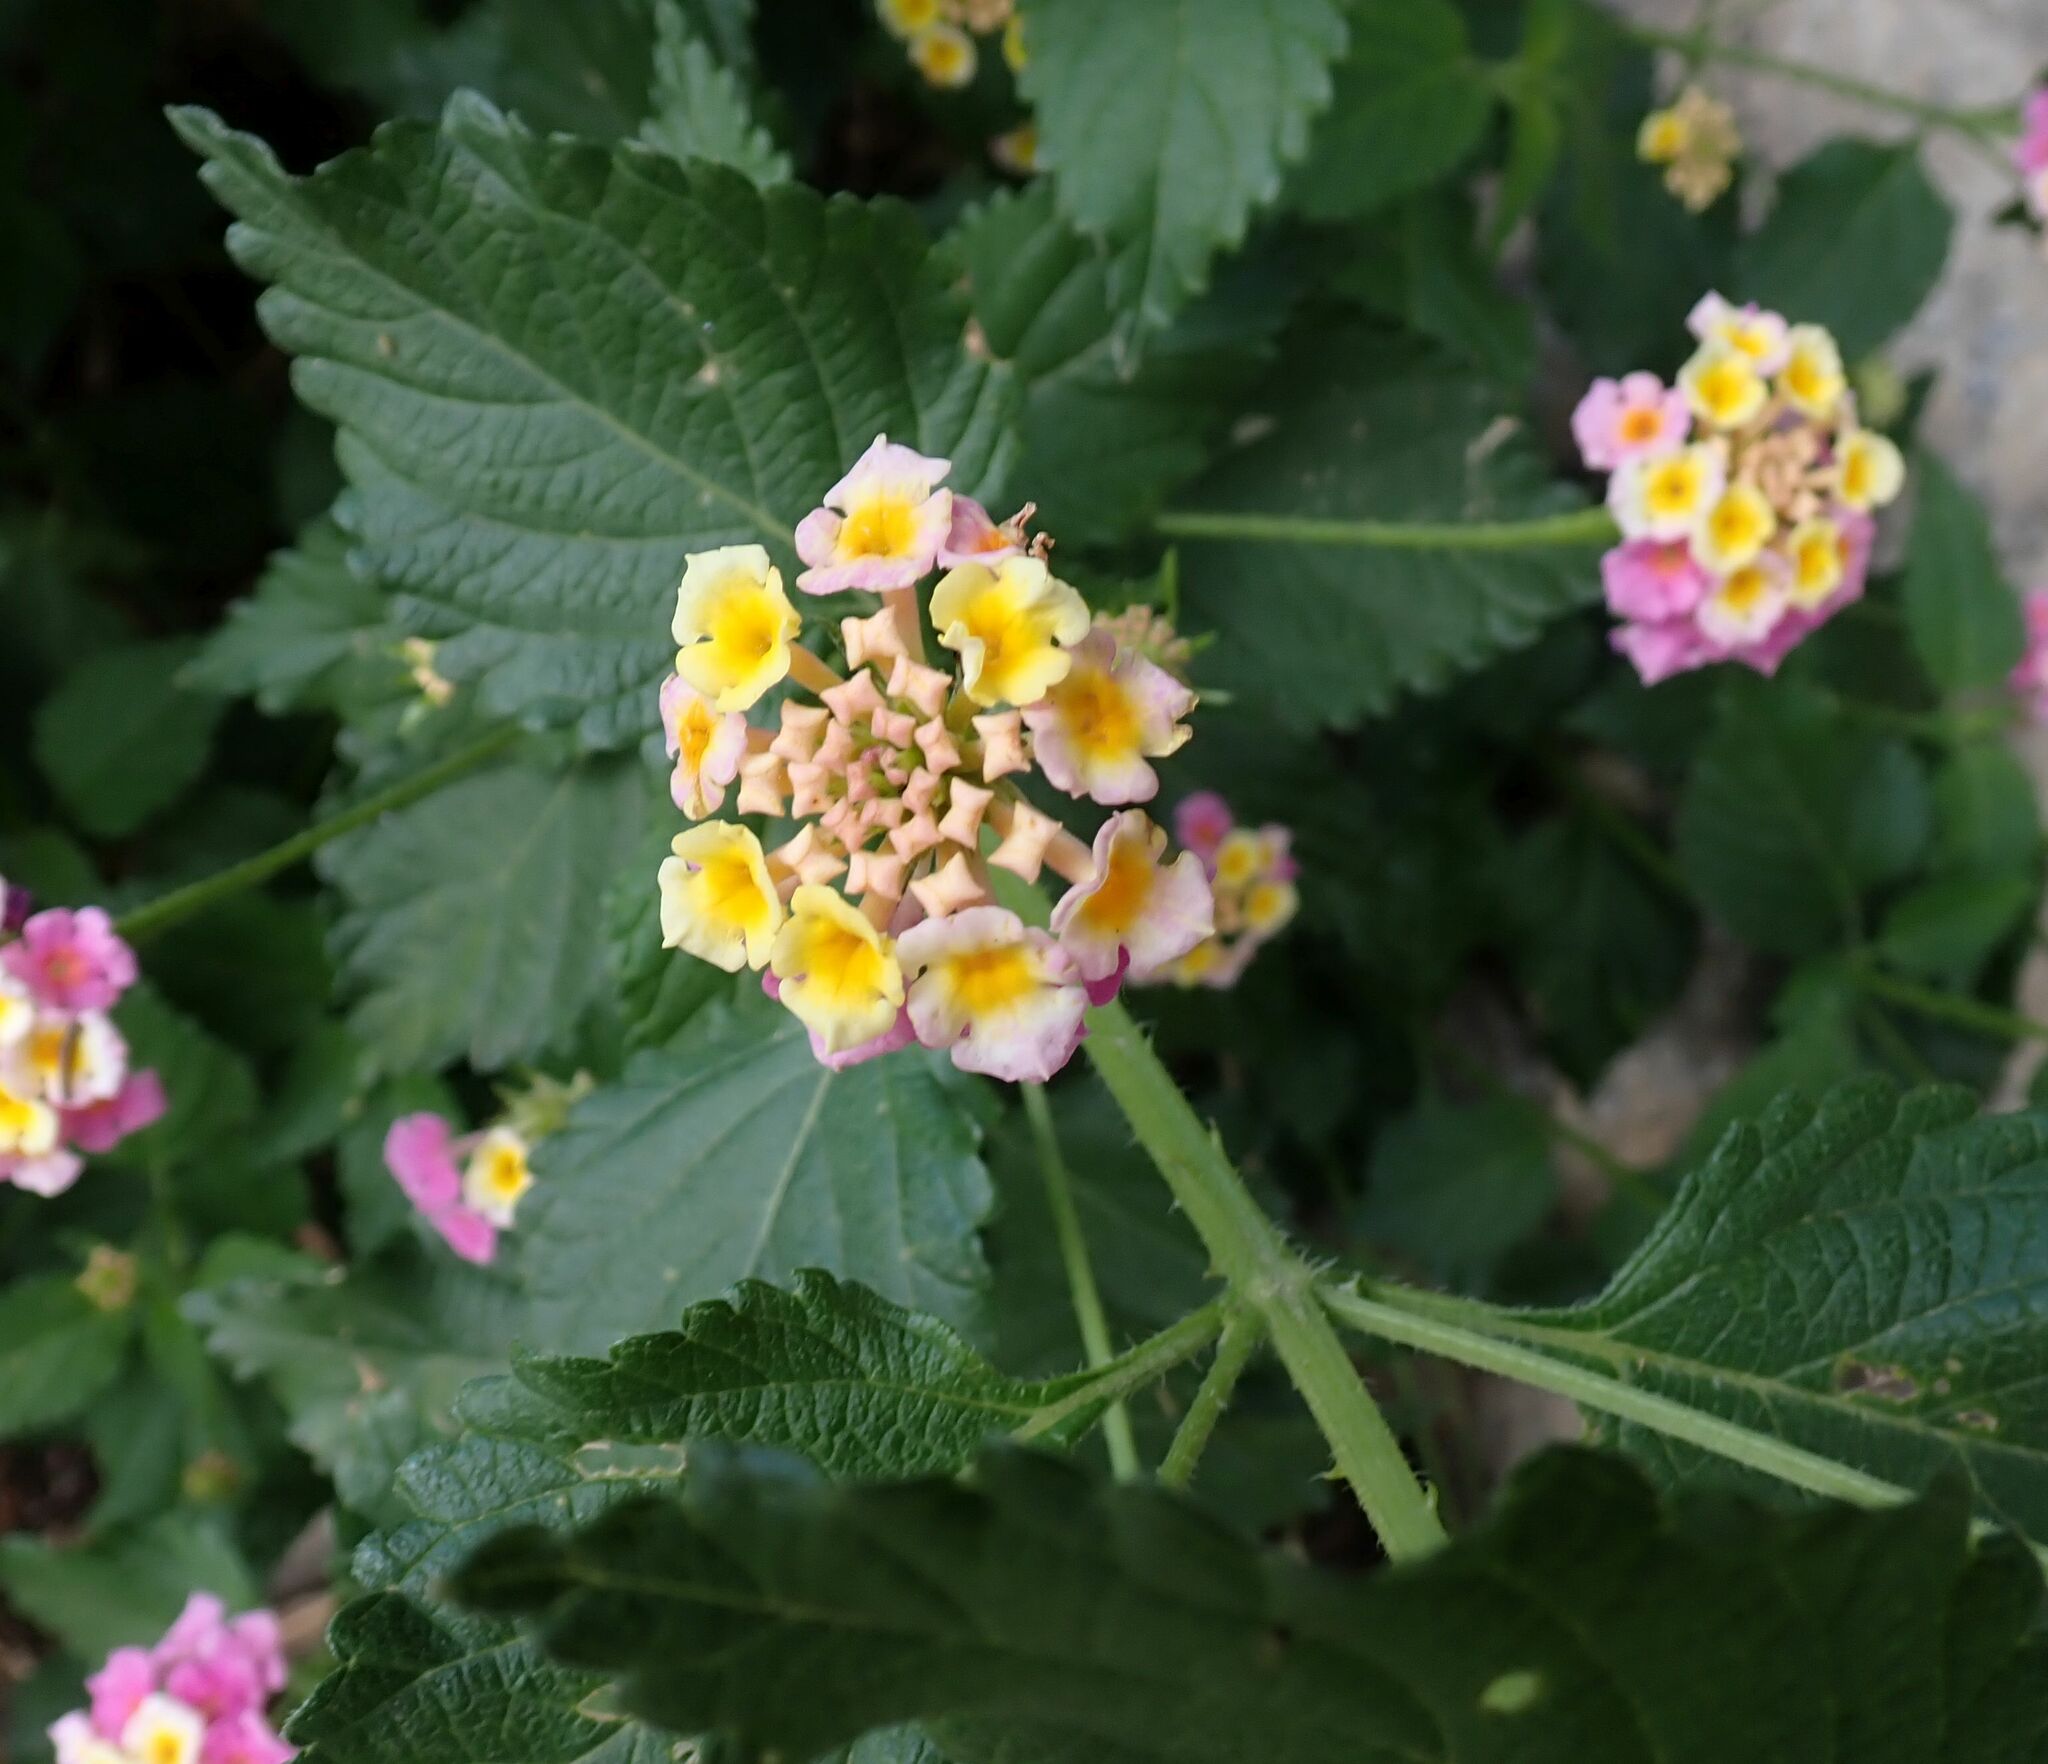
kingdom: Plantae
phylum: Tracheophyta
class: Magnoliopsida
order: Lamiales
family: Verbenaceae
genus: Lantana
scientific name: Lantana camara
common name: Lantana
